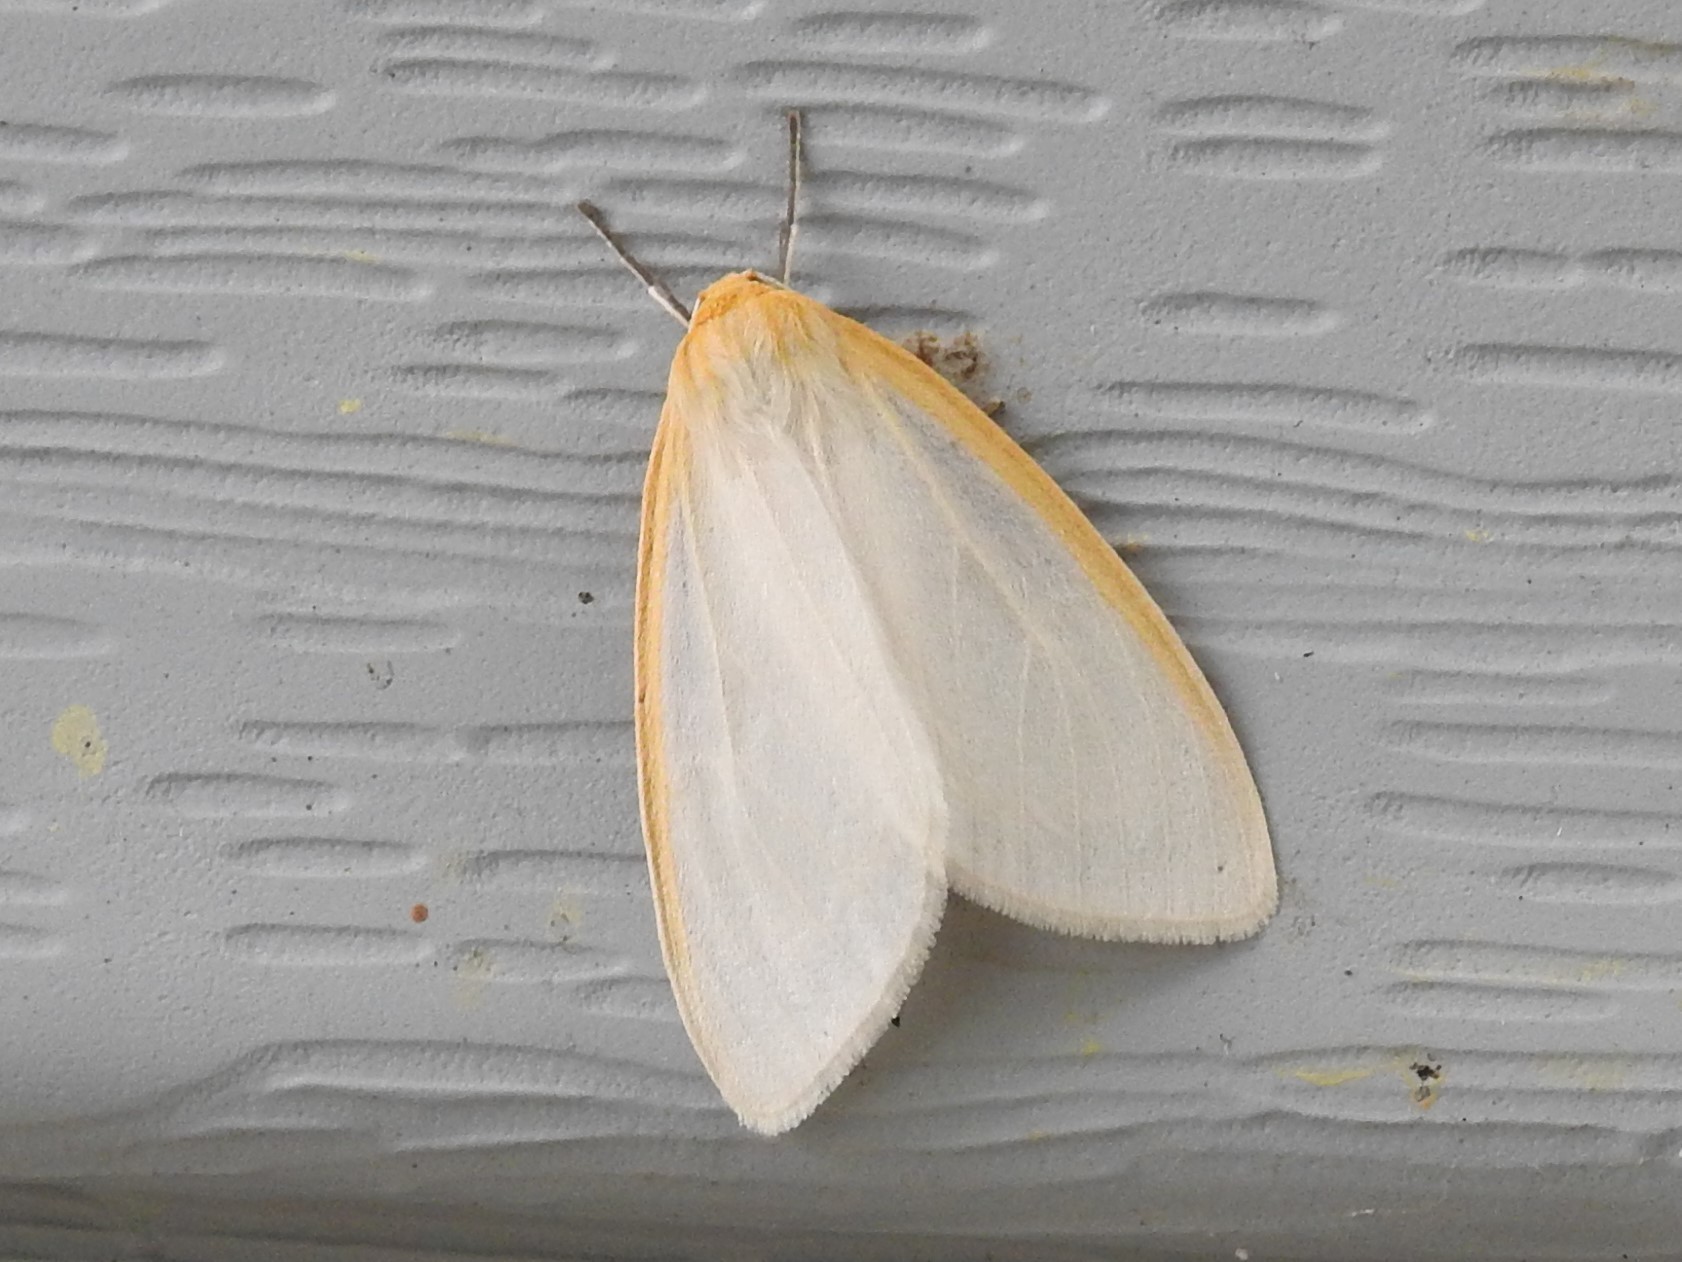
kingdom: Animalia
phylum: Arthropoda
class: Insecta
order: Lepidoptera
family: Erebidae
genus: Cycnia
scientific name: Cycnia tenera
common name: Delicate cycnia moth
